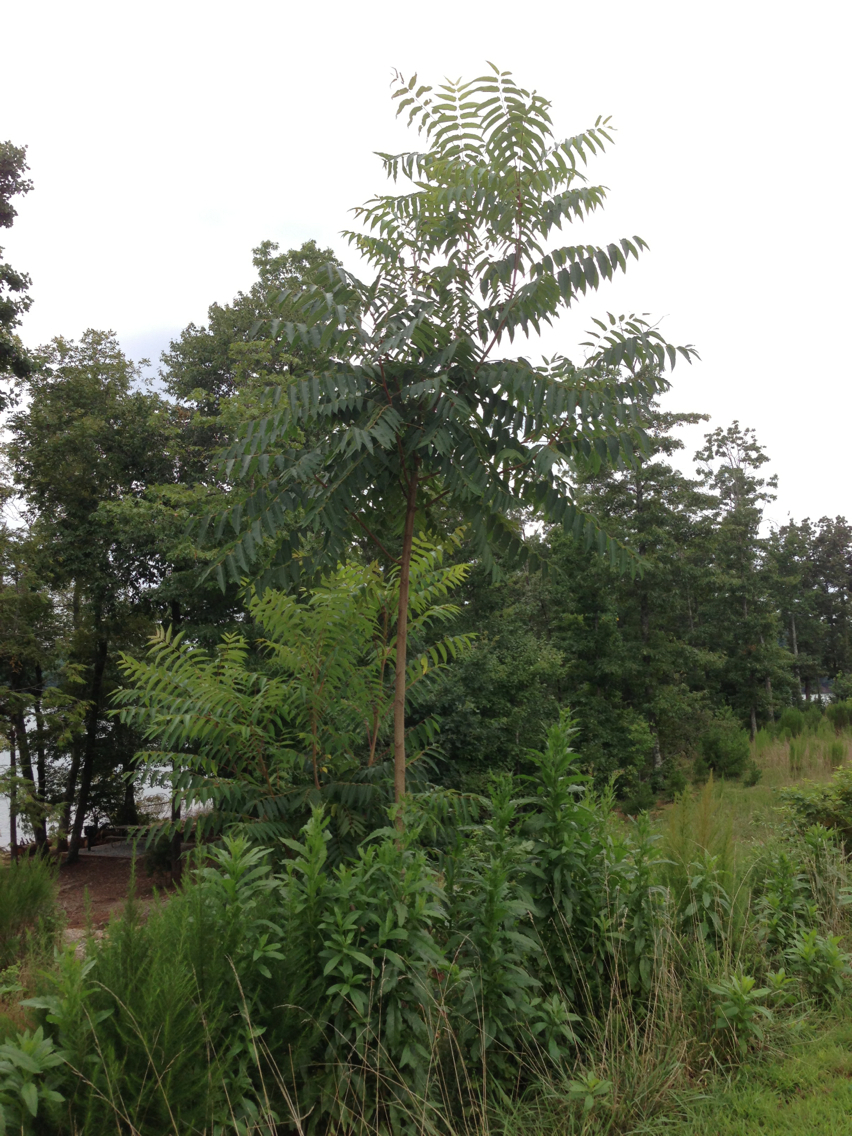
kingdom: Plantae
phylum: Tracheophyta
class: Magnoliopsida
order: Sapindales
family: Simaroubaceae
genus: Ailanthus
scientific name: Ailanthus altissima
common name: Tree-of-heaven
